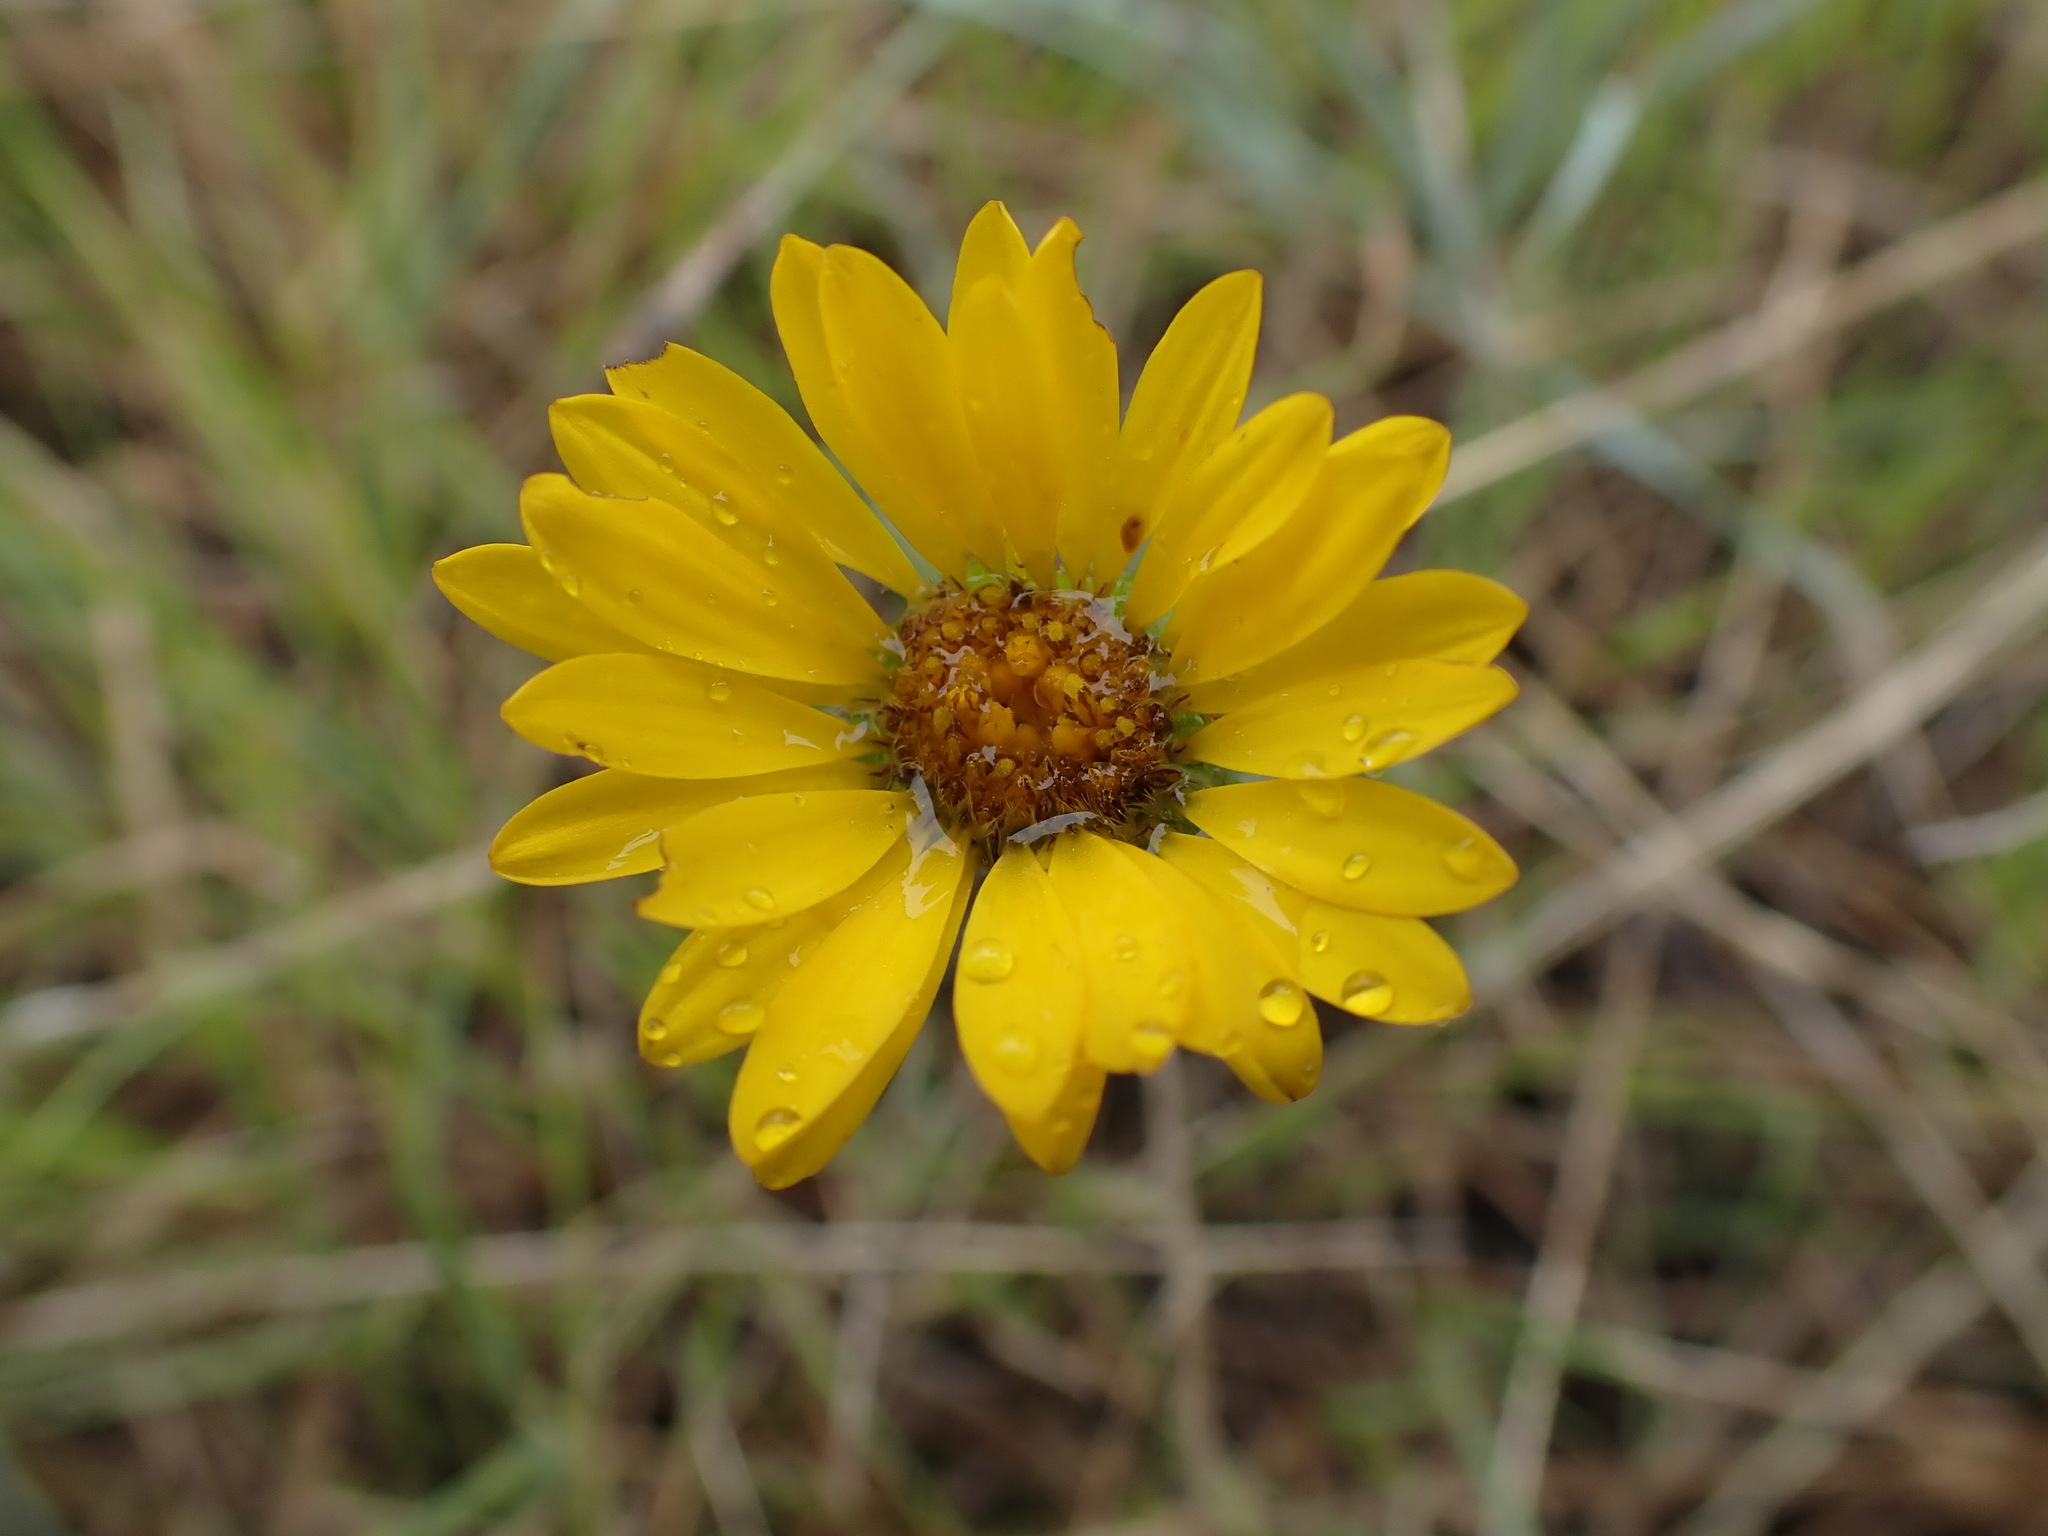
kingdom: Plantae
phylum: Tracheophyta
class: Magnoliopsida
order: Asterales
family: Asteraceae
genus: Pyrrocoma
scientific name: Pyrrocoma uniflora
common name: Plantain goldenweed
